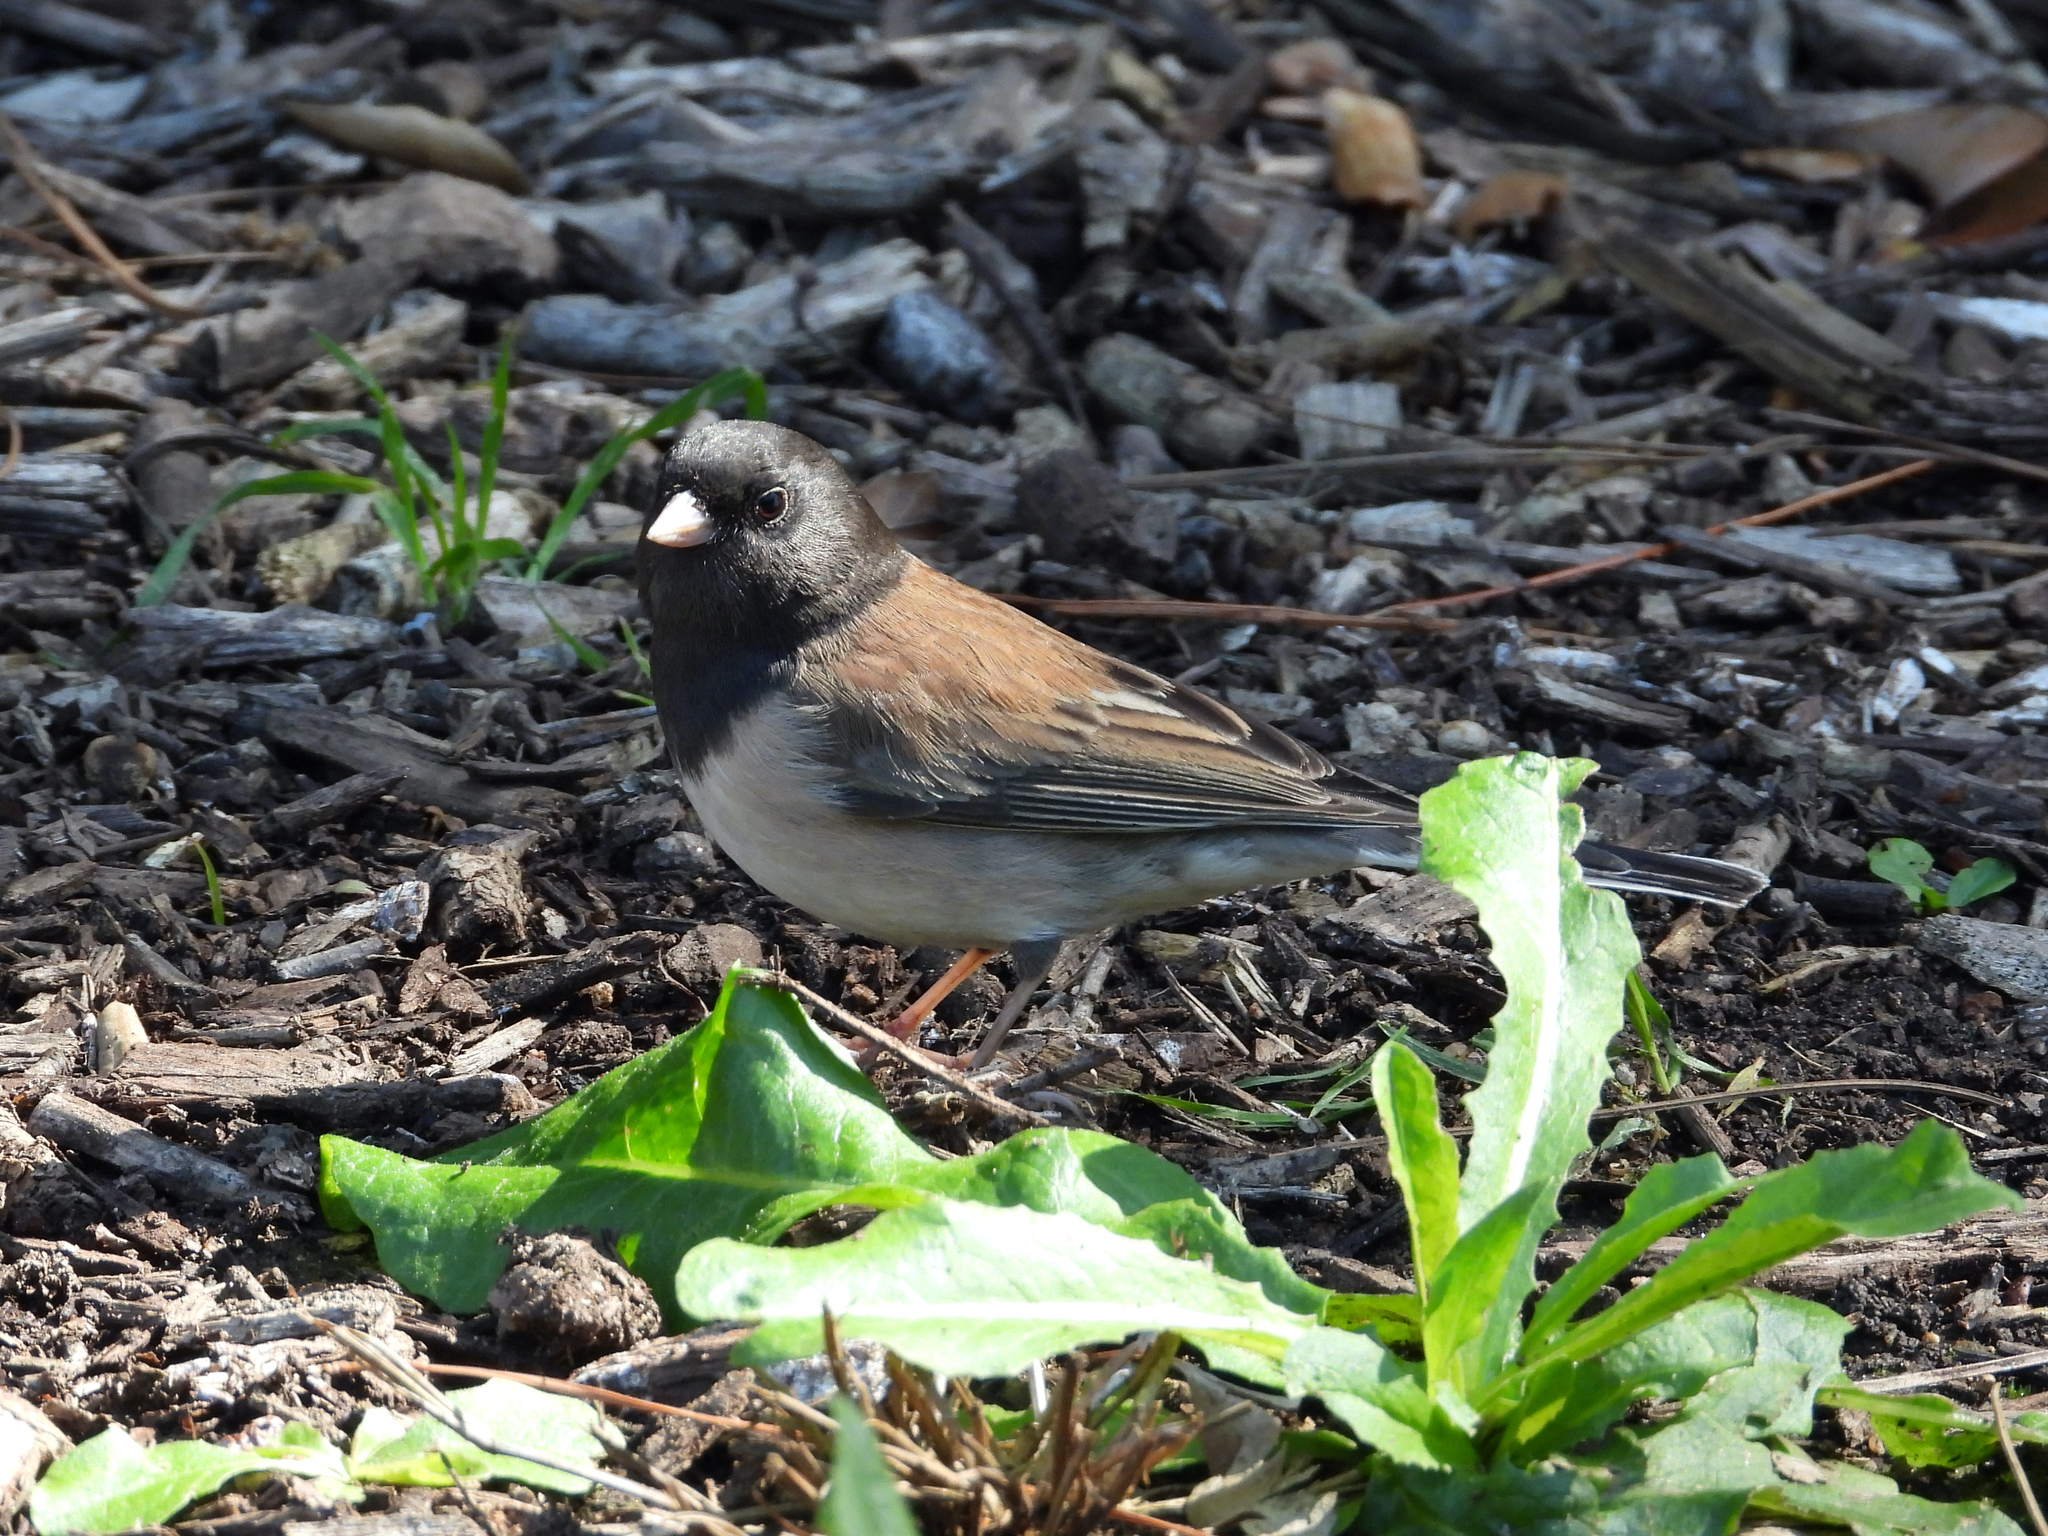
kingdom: Animalia
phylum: Chordata
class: Aves
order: Passeriformes
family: Passerellidae
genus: Junco
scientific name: Junco hyemalis
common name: Dark-eyed junco
